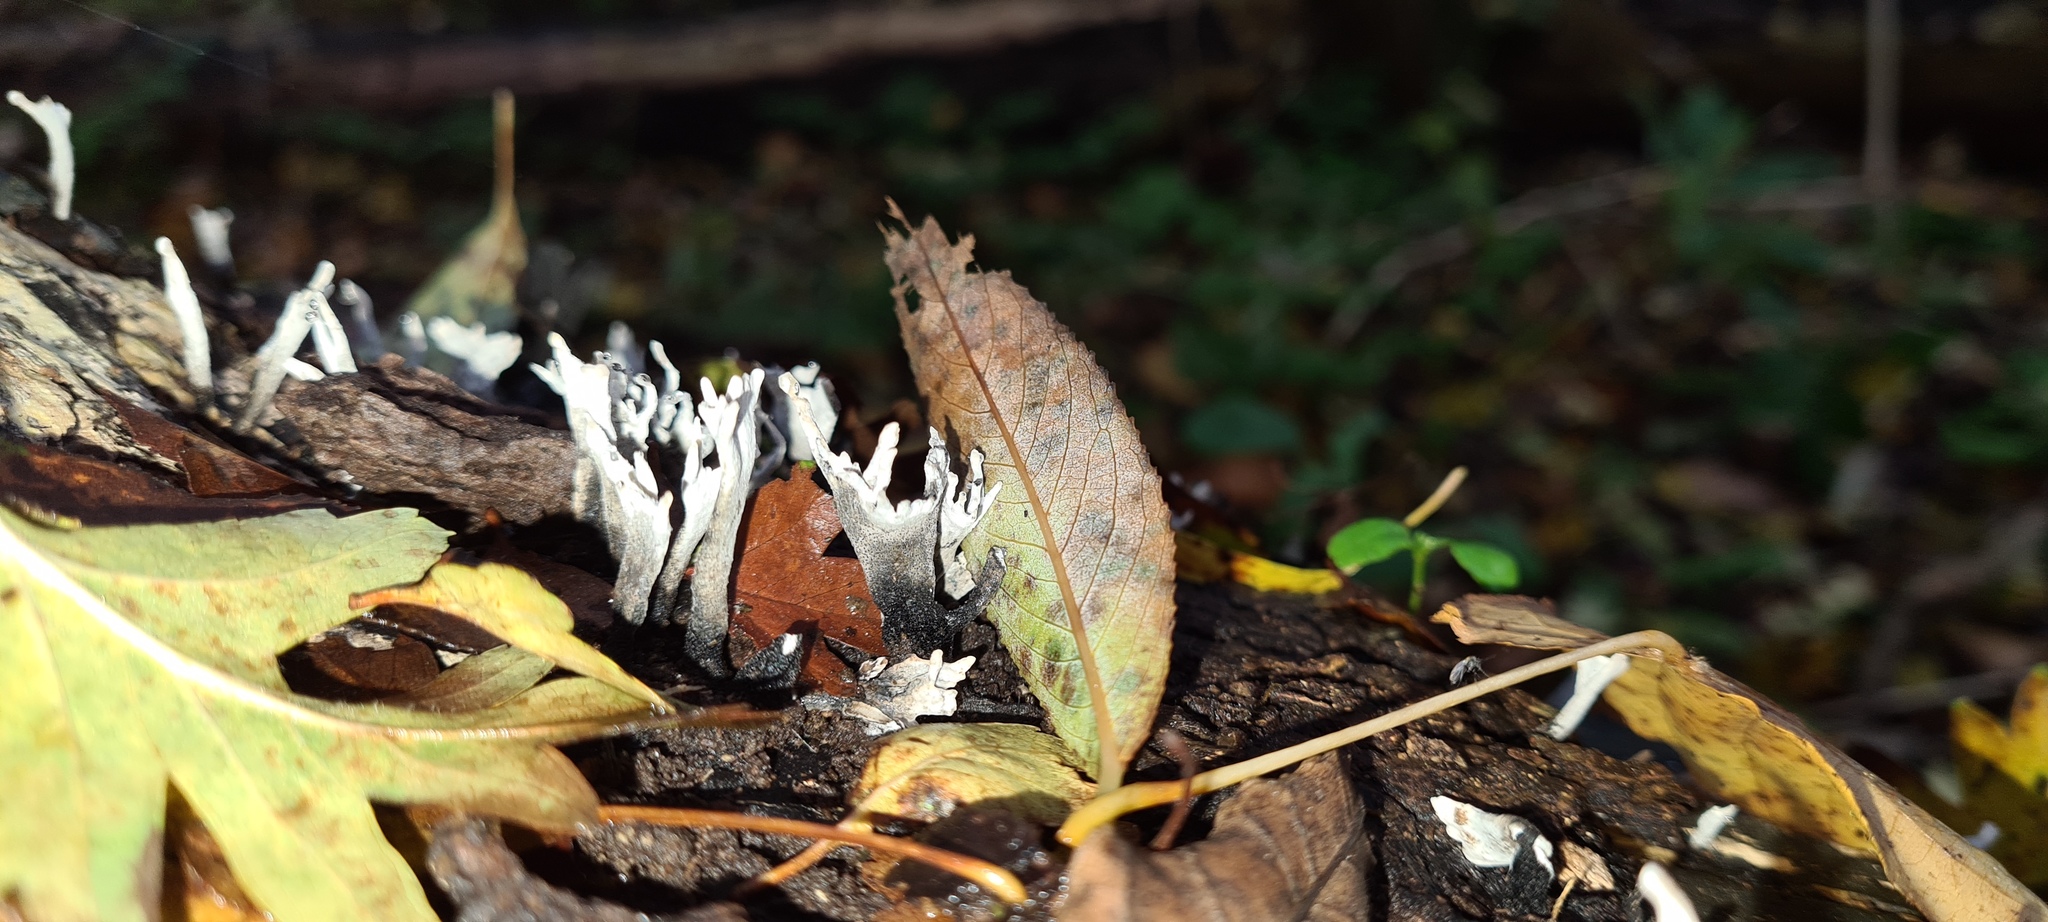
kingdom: Fungi
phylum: Ascomycota
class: Sordariomycetes
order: Xylariales
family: Xylariaceae
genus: Xylaria
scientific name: Xylaria hypoxylon
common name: Candle-snuff fungus
